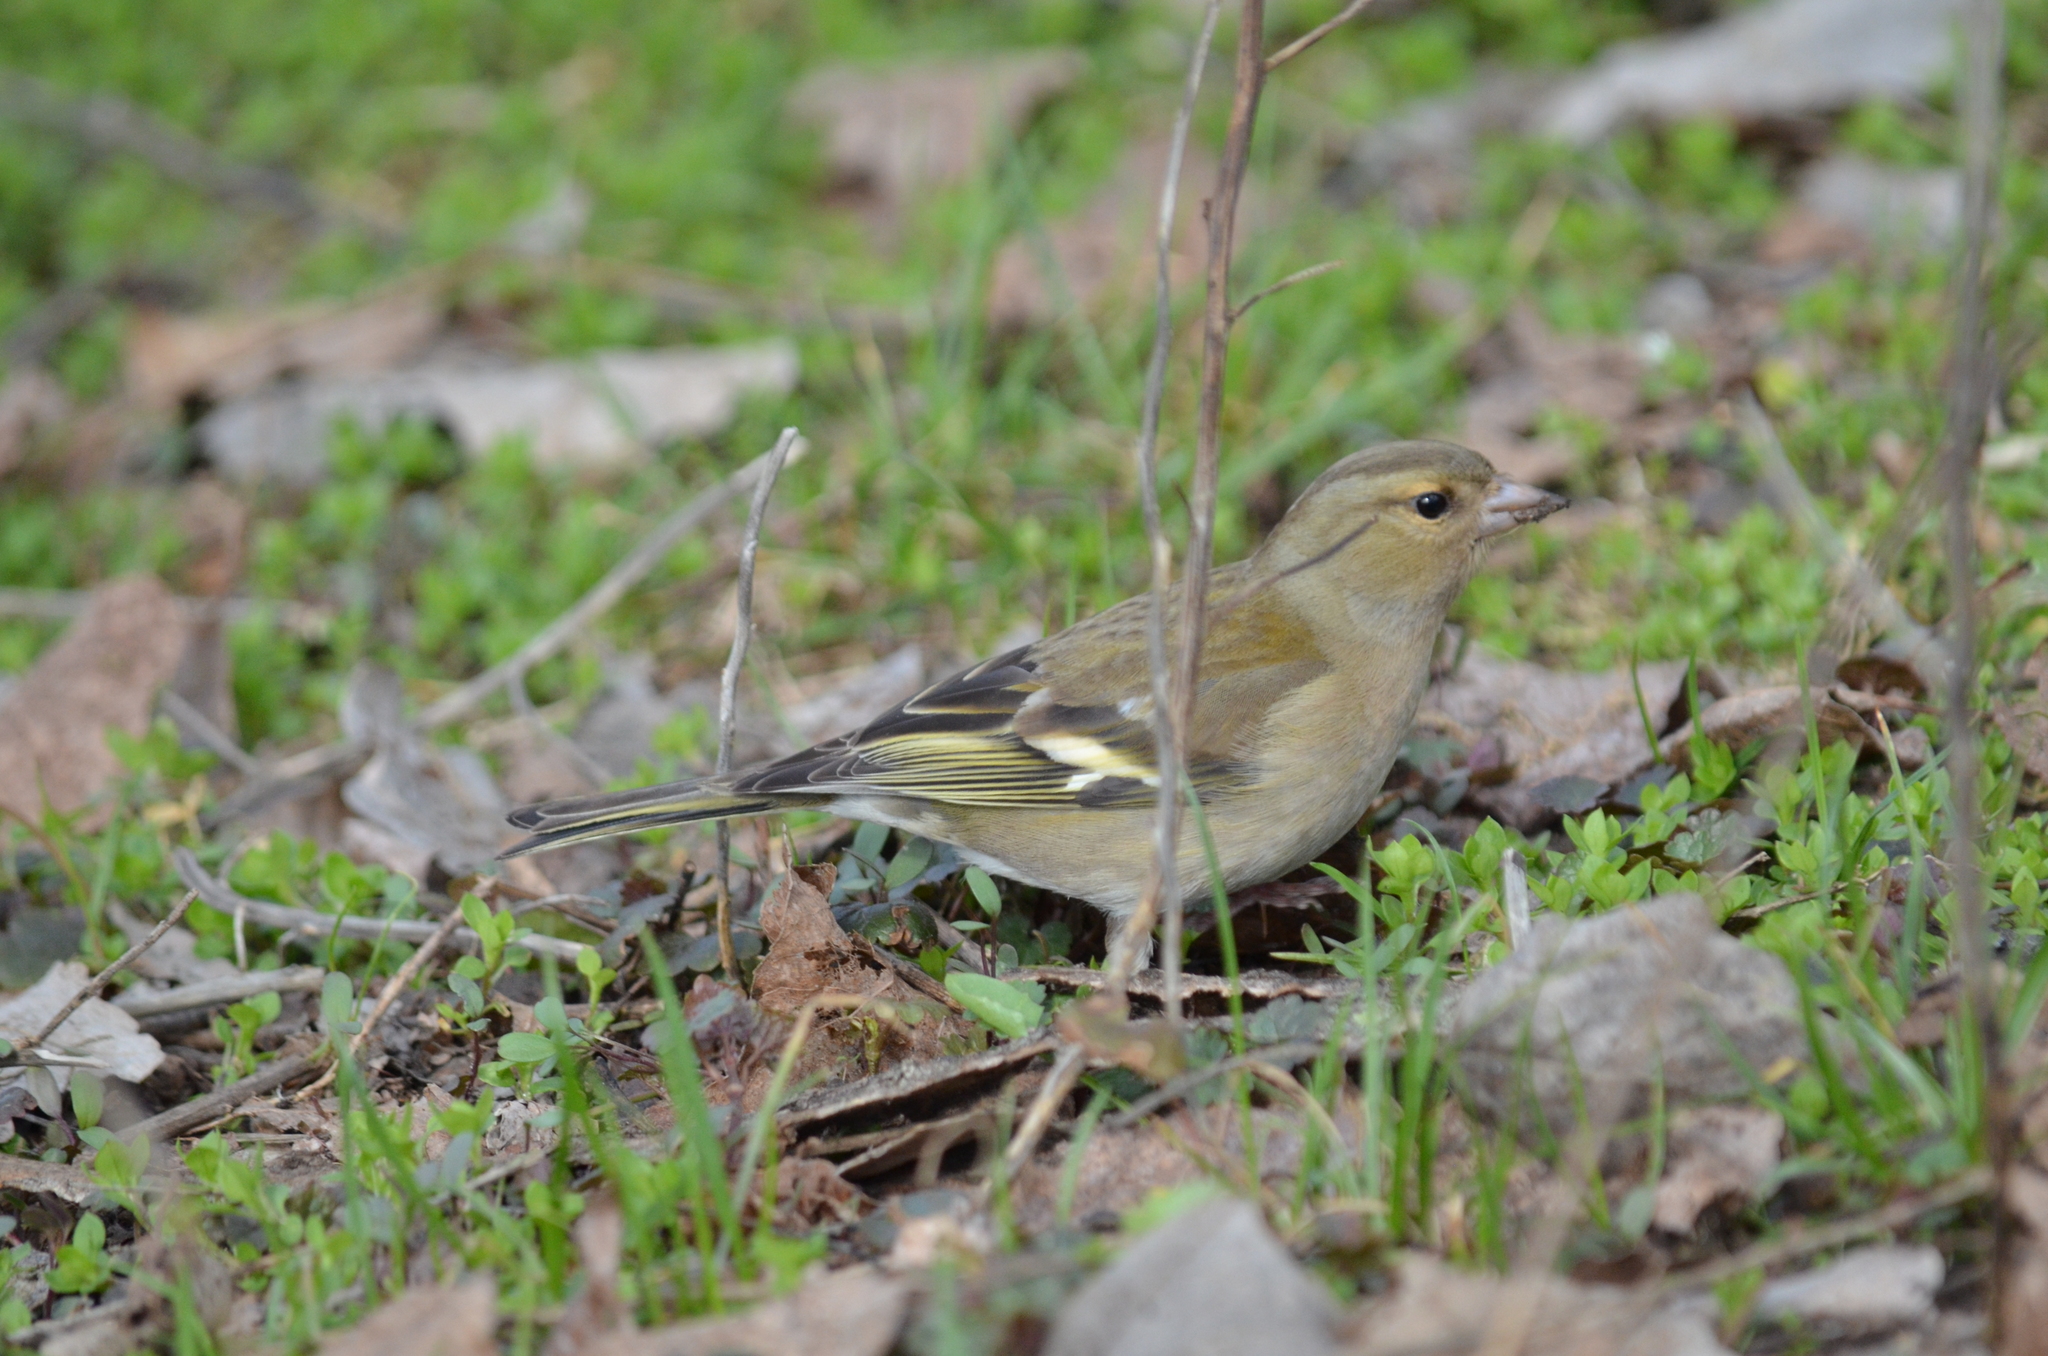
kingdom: Animalia
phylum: Chordata
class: Aves
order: Passeriformes
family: Fringillidae
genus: Fringilla
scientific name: Fringilla coelebs
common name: Common chaffinch
